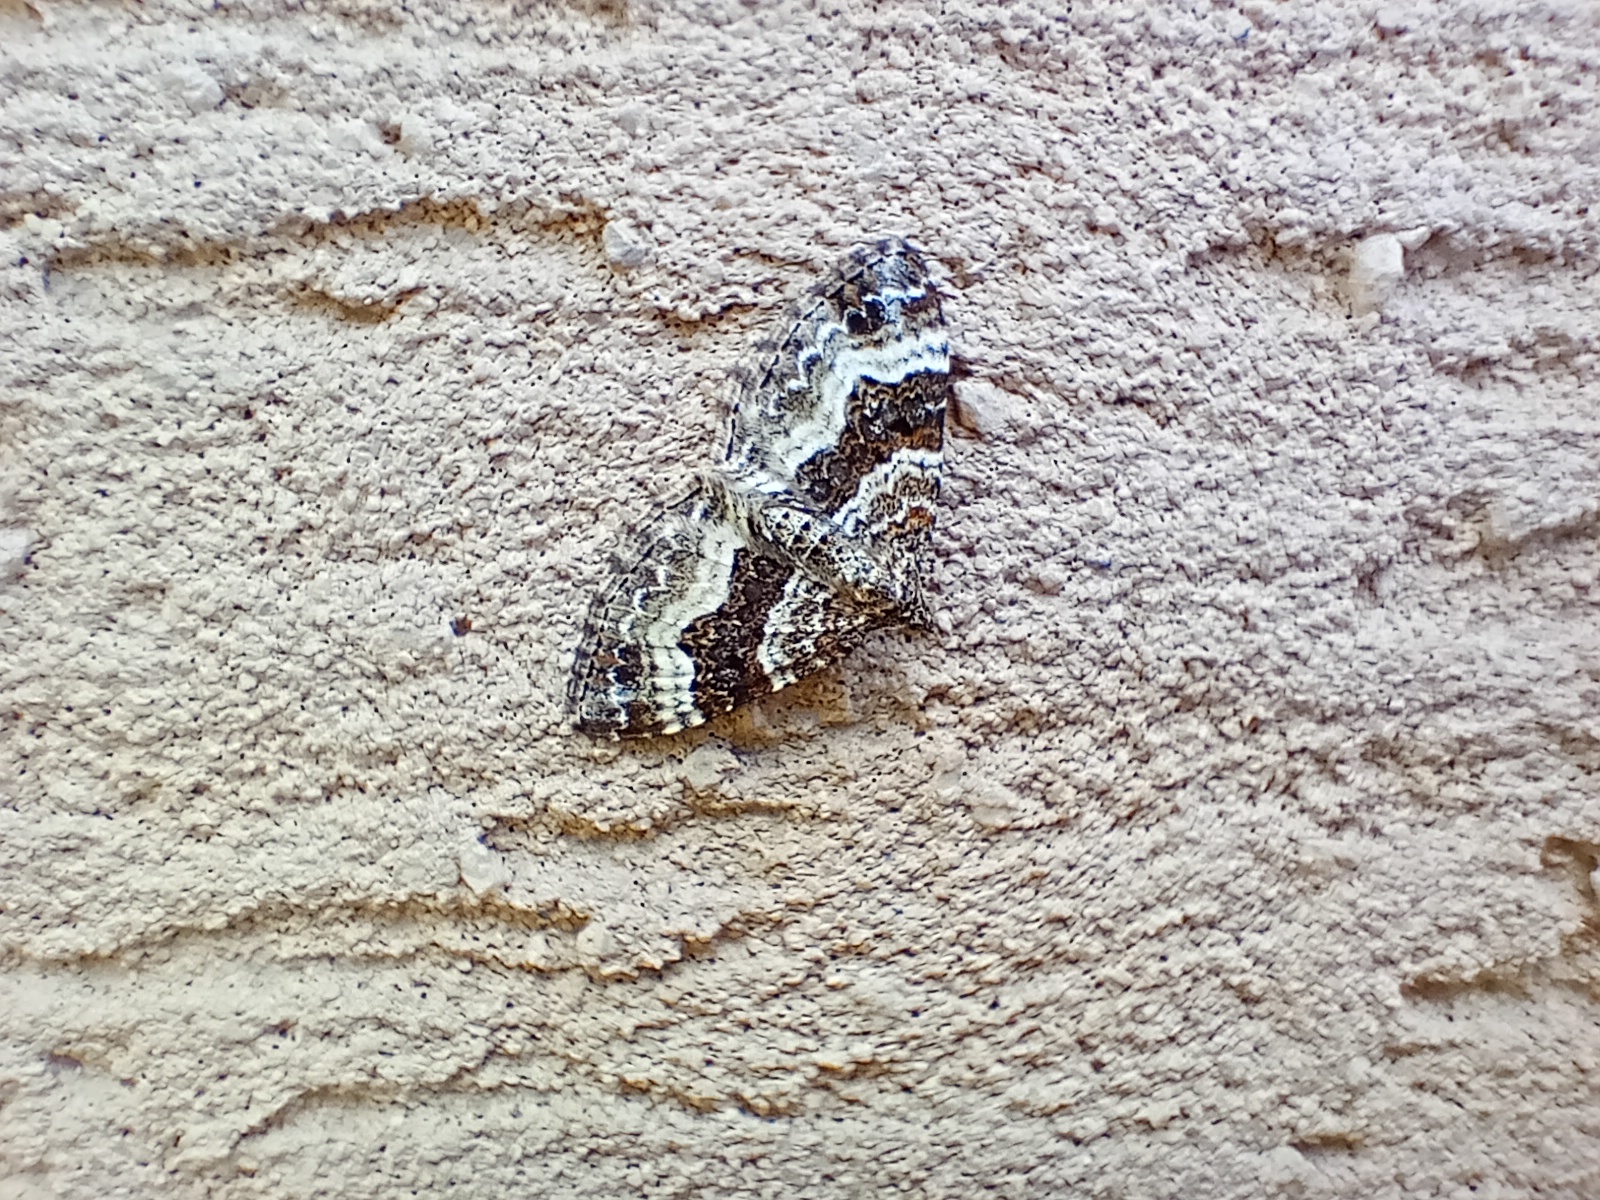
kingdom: Animalia
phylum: Arthropoda
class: Insecta
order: Lepidoptera
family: Geometridae
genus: Epirrhoe
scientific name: Epirrhoe alternata
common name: Common carpet
